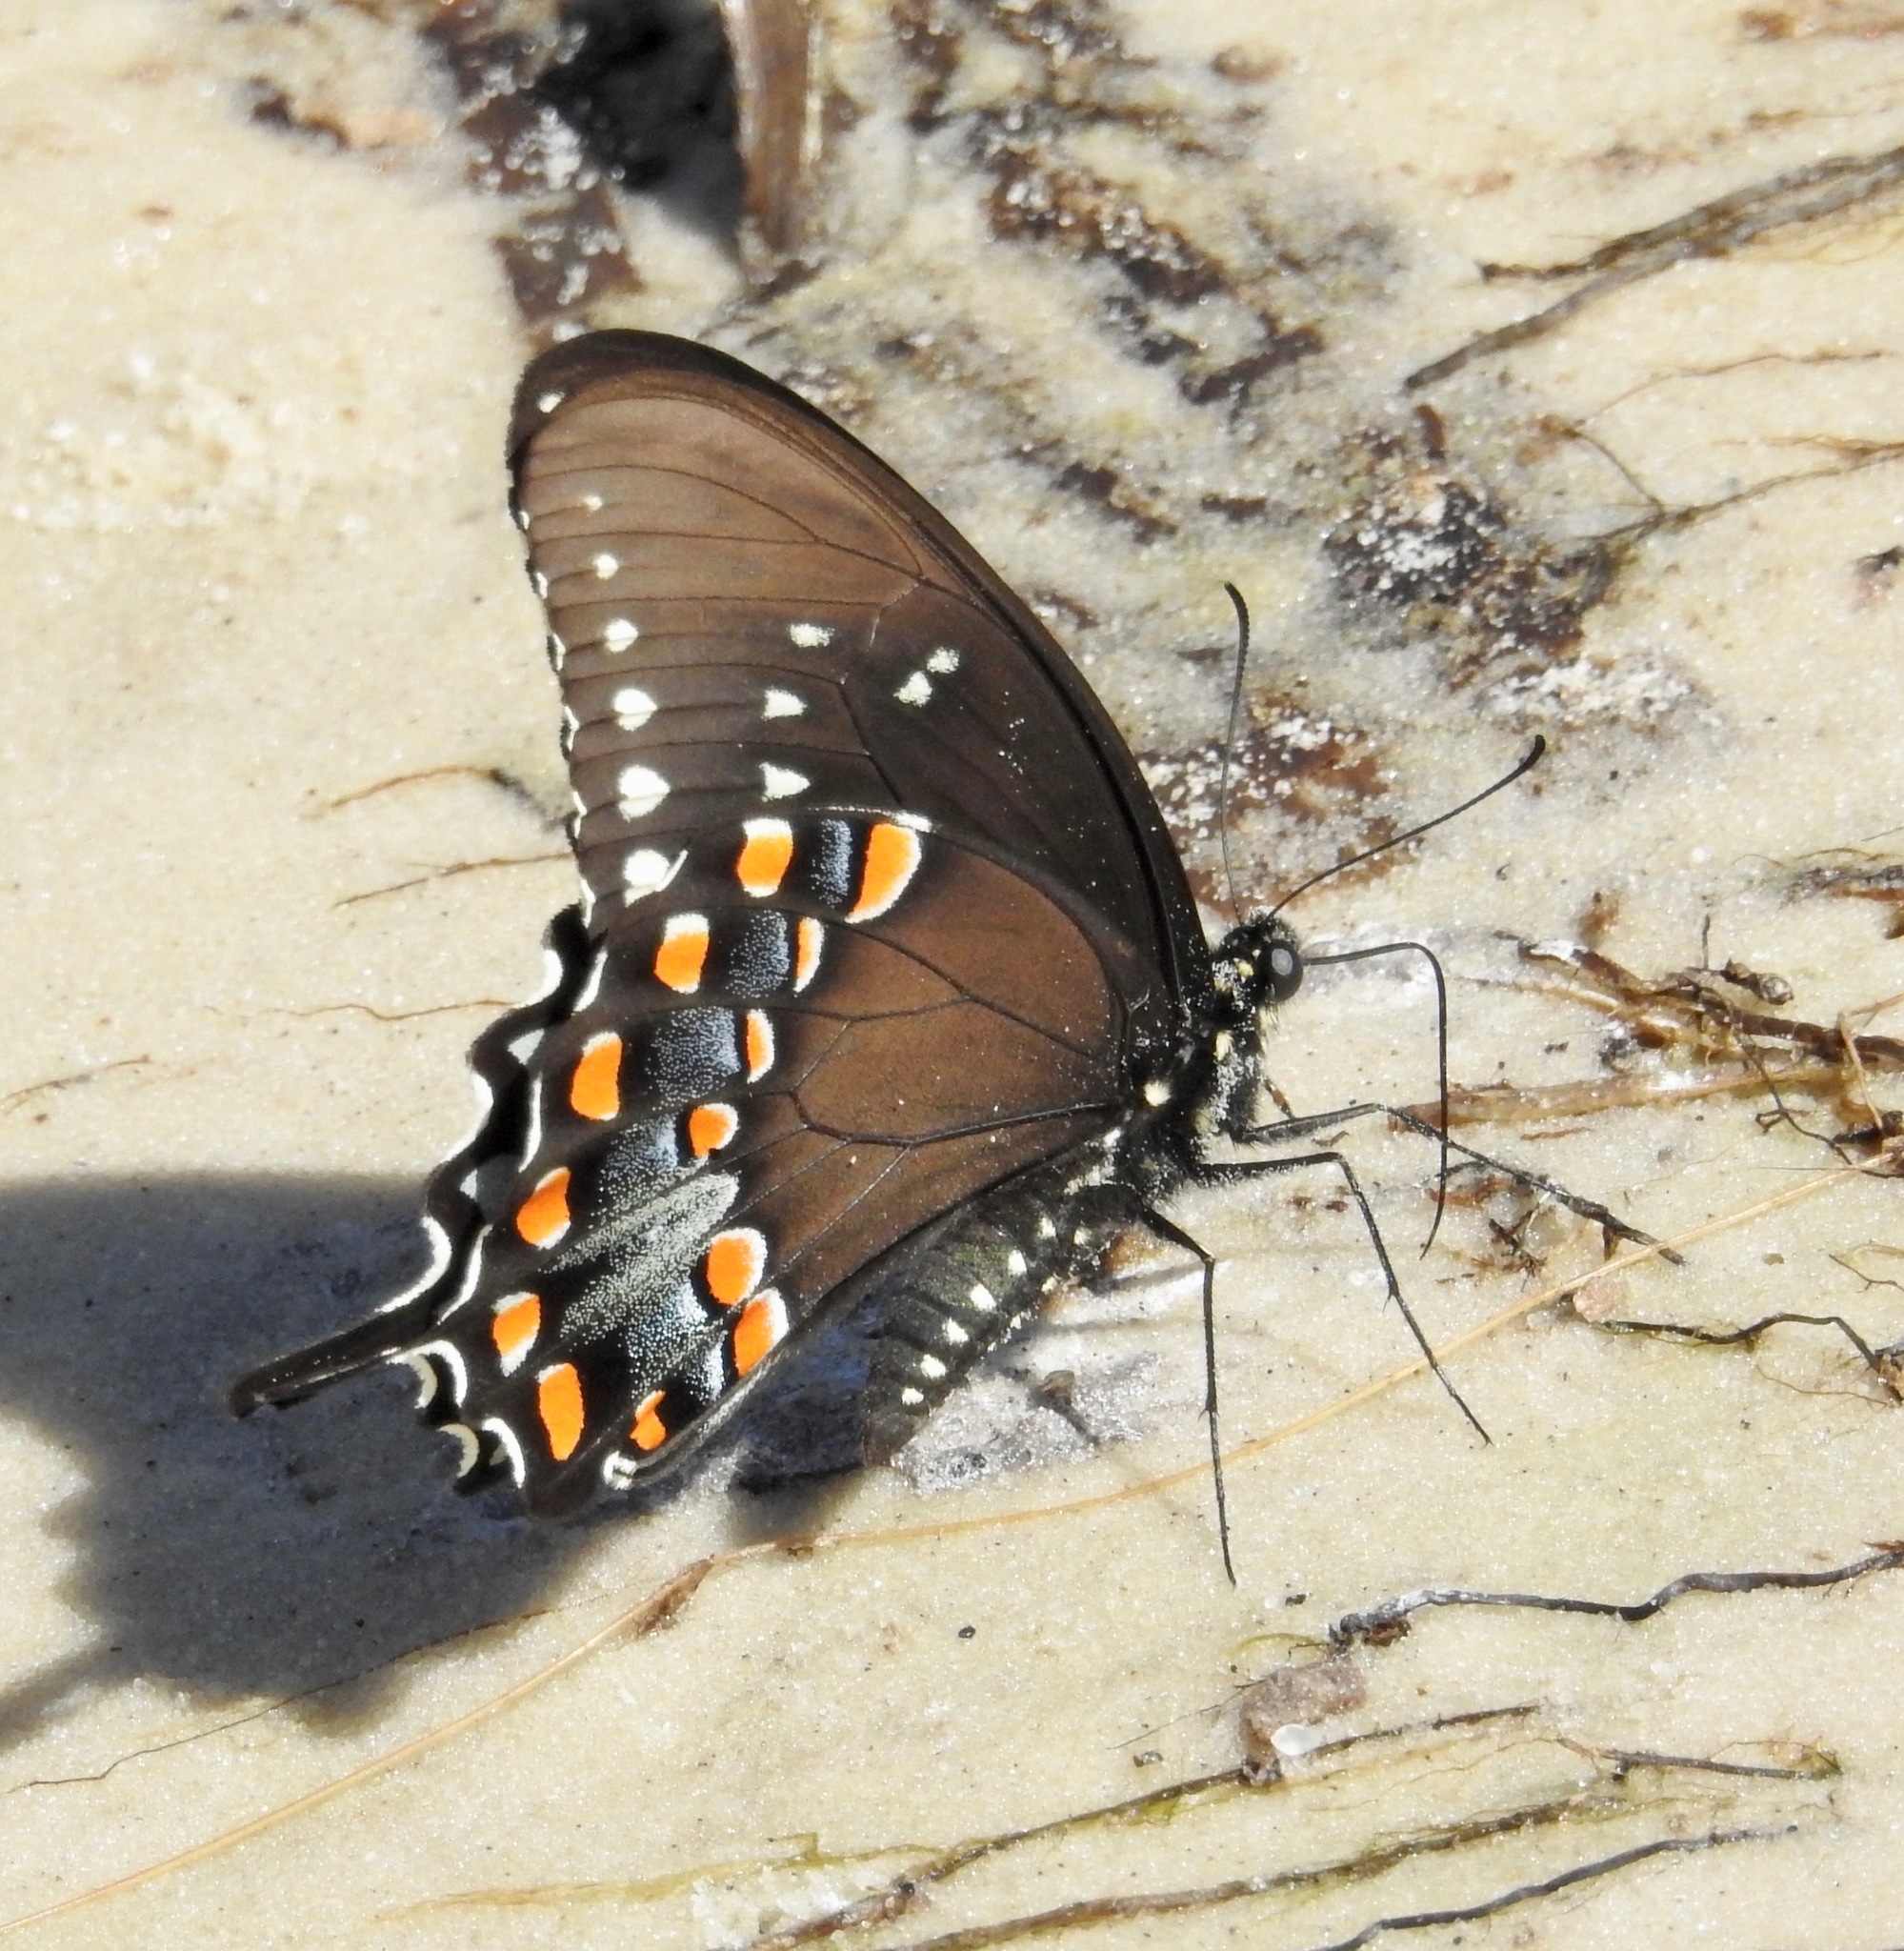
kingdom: Animalia
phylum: Arthropoda
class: Insecta
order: Lepidoptera
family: Papilionidae
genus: Papilio
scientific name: Papilio troilus
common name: Spicebush swallowtail
